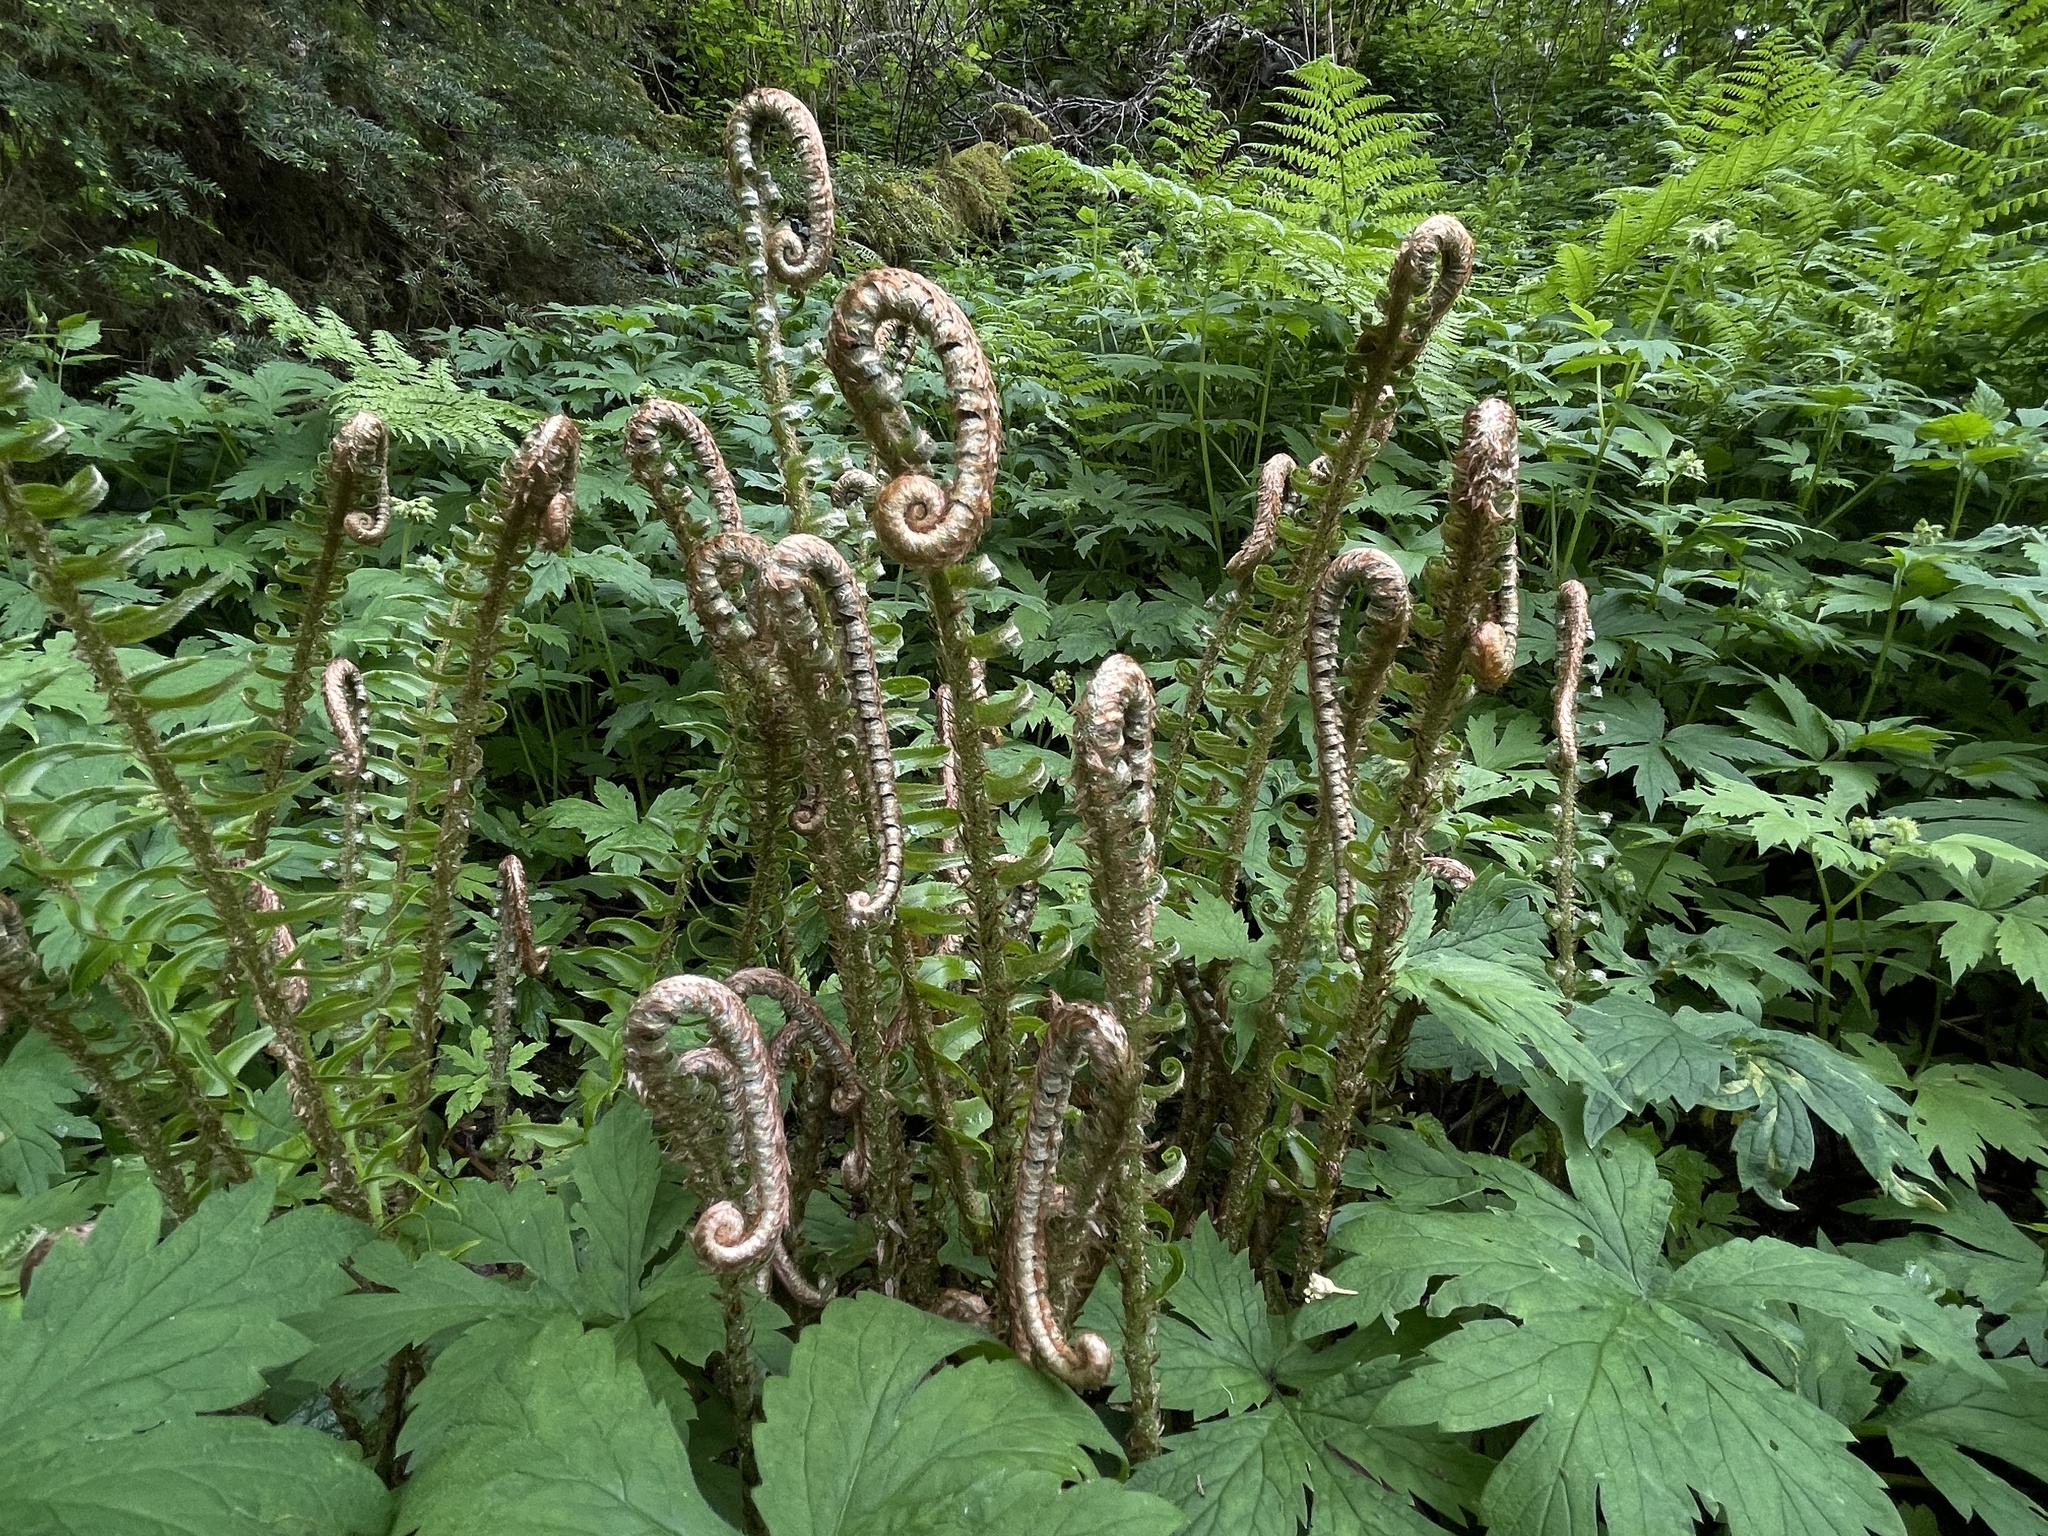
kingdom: Plantae
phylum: Tracheophyta
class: Polypodiopsida
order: Polypodiales
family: Dryopteridaceae
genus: Polystichum
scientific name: Polystichum munitum
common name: Western sword-fern
